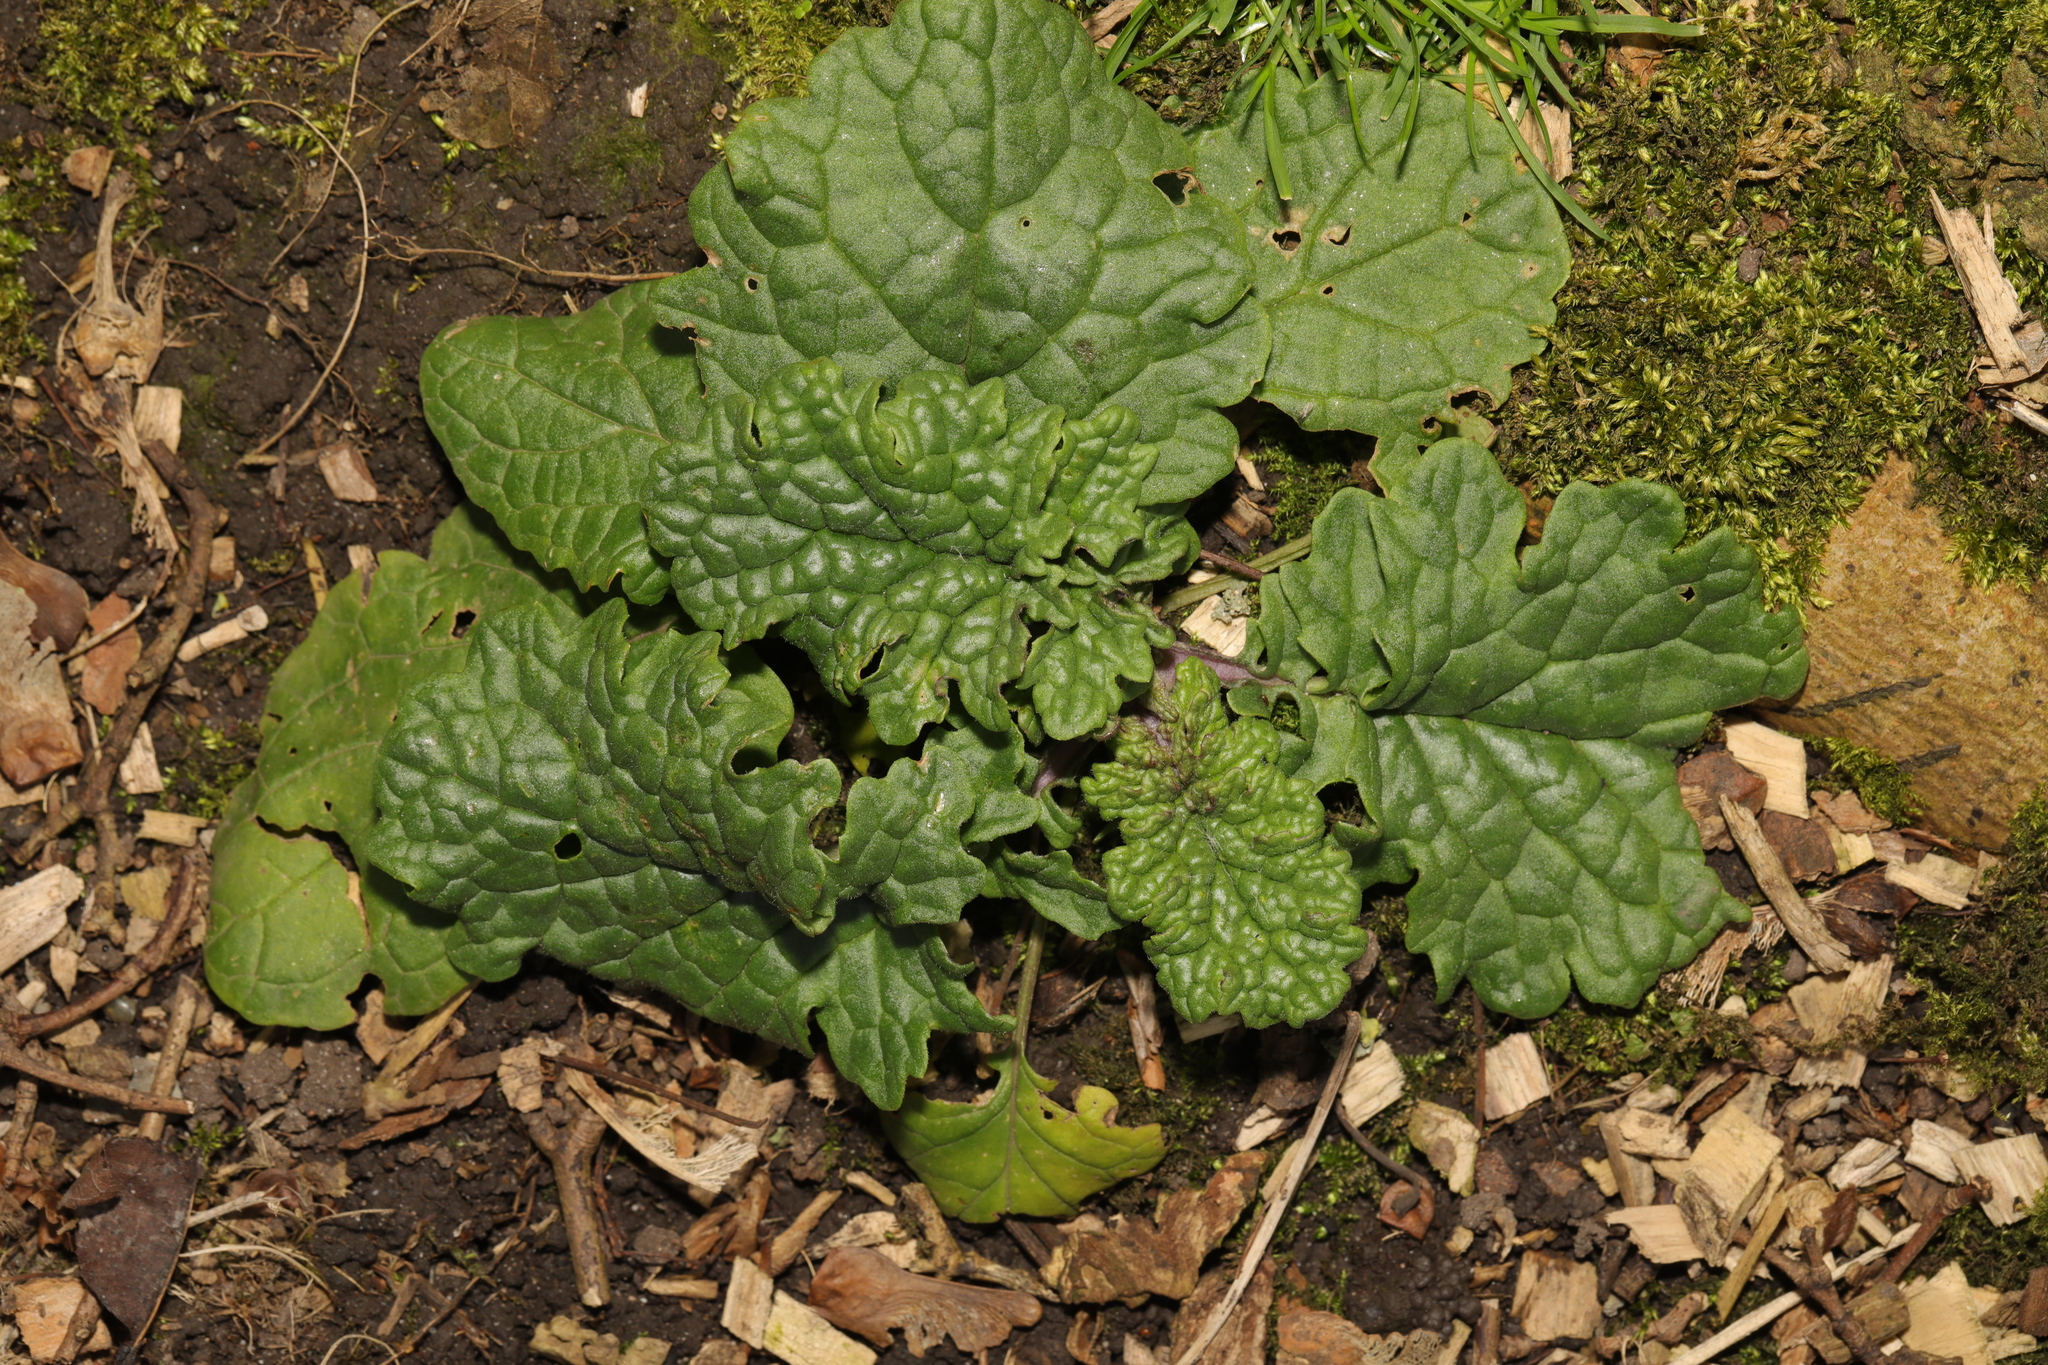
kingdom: Plantae
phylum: Tracheophyta
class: Magnoliopsida
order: Asterales
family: Asteraceae
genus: Jacobaea
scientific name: Jacobaea vulgaris
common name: Stinking willie
